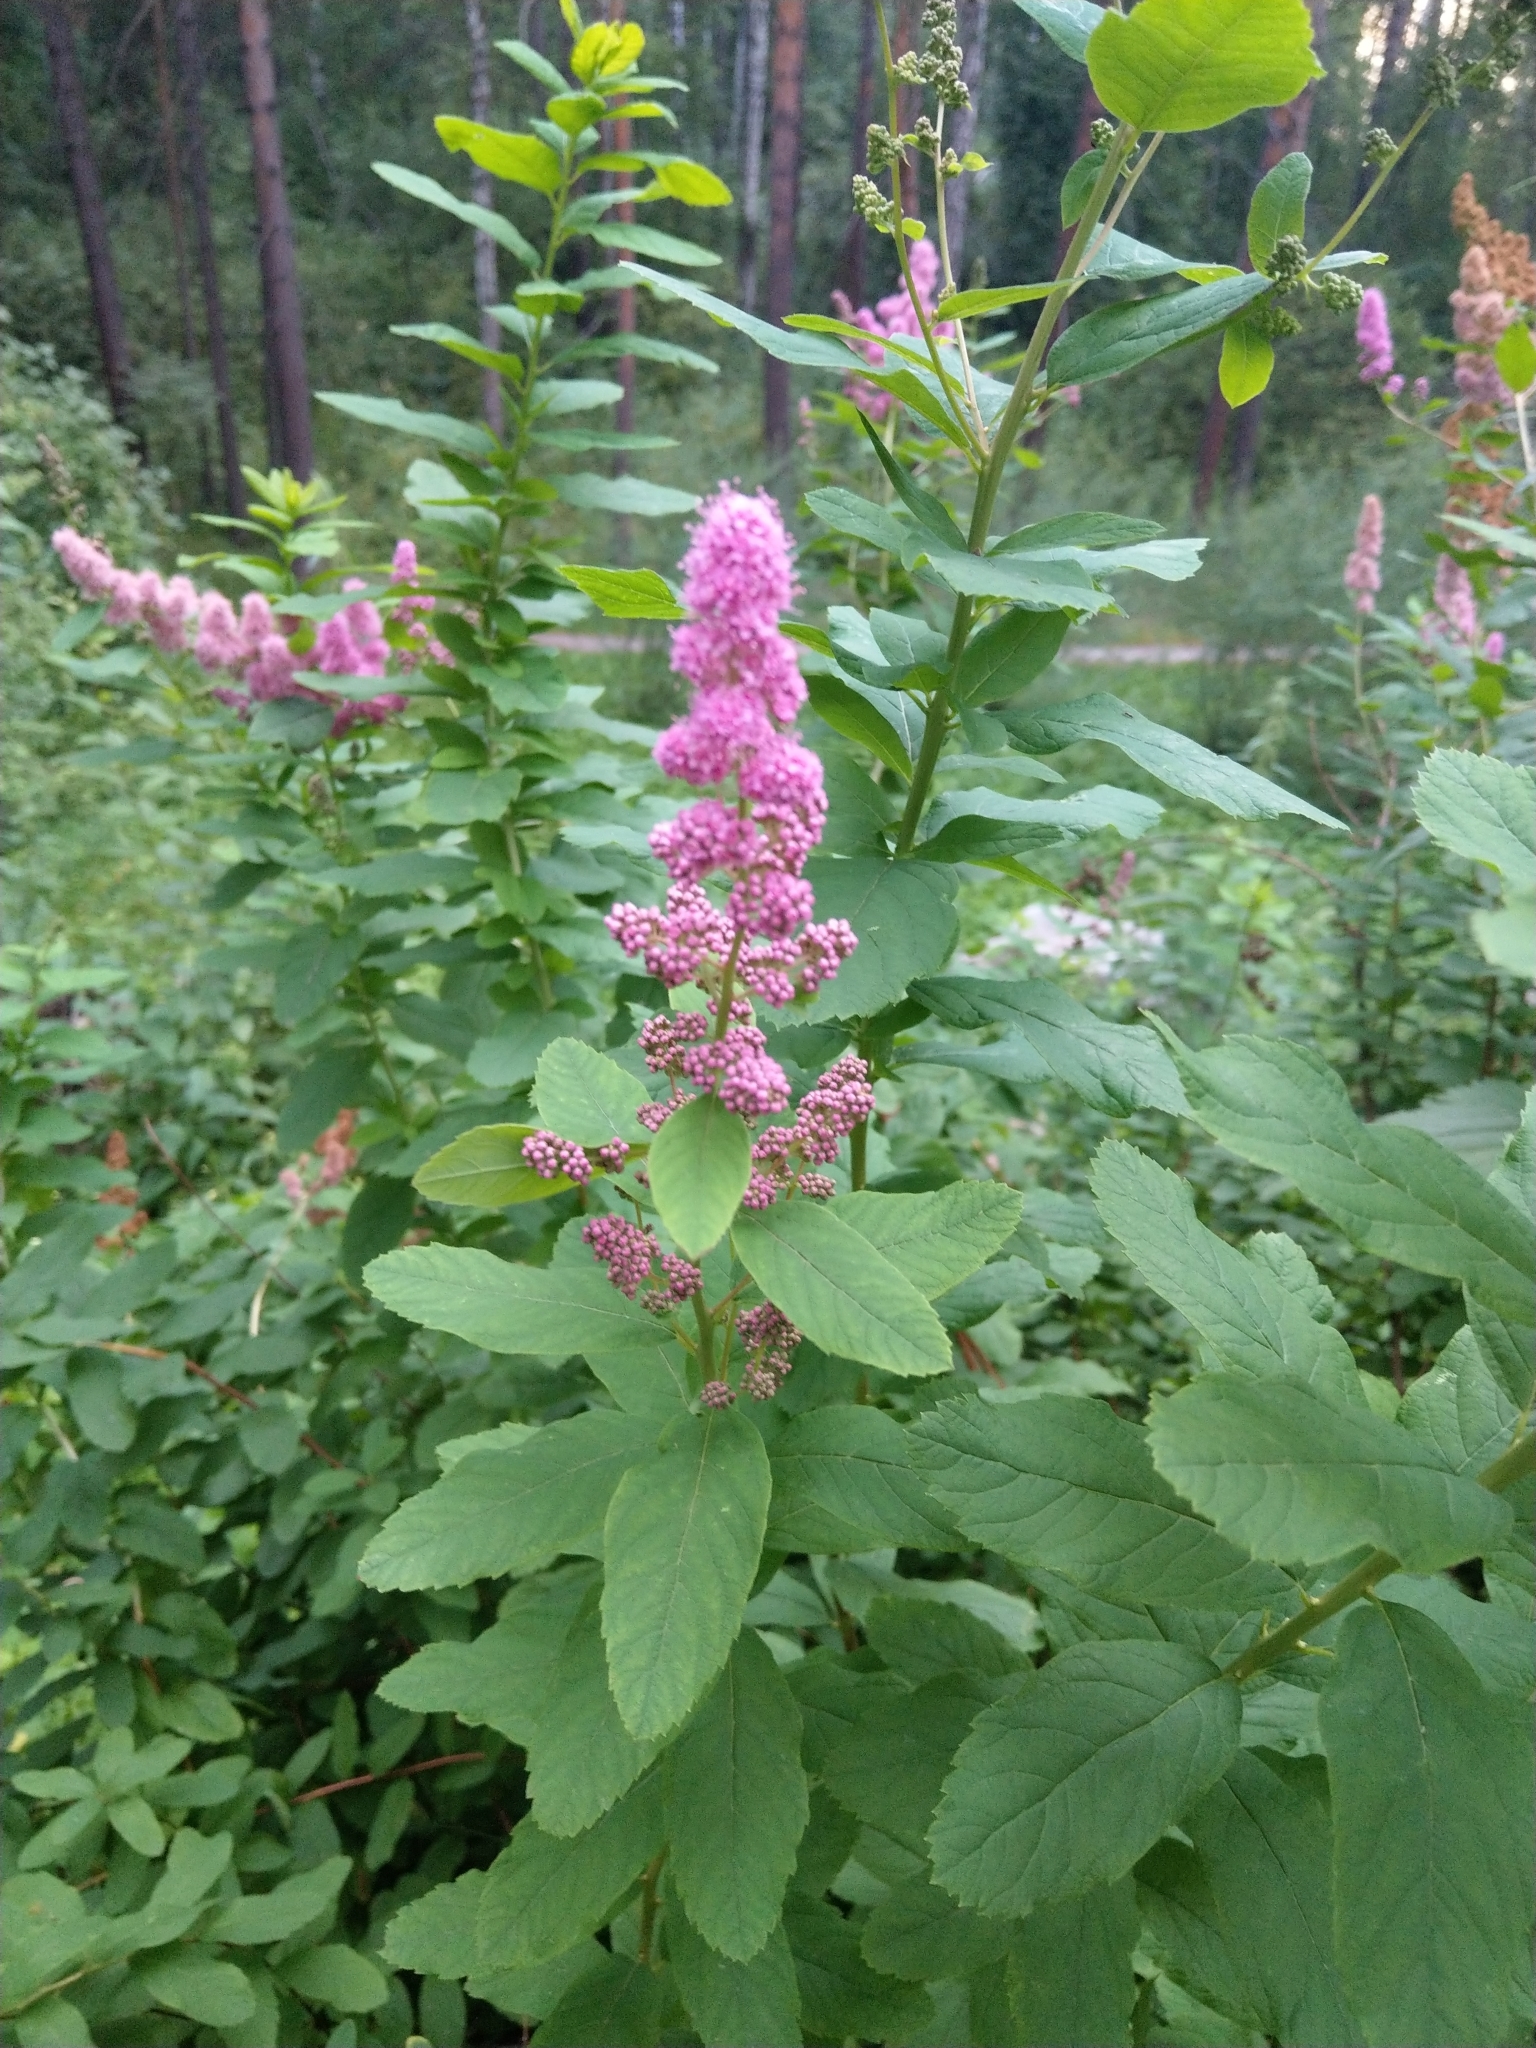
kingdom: Plantae
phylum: Tracheophyta
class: Magnoliopsida
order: Rosales
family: Rosaceae
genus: Spiraea
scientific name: Spiraea salicifolia
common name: Bridewort
